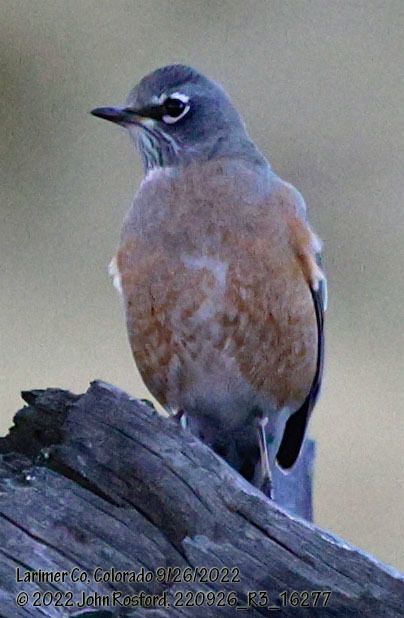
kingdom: Animalia
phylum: Chordata
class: Aves
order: Passeriformes
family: Turdidae
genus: Turdus
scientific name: Turdus migratorius
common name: American robin
